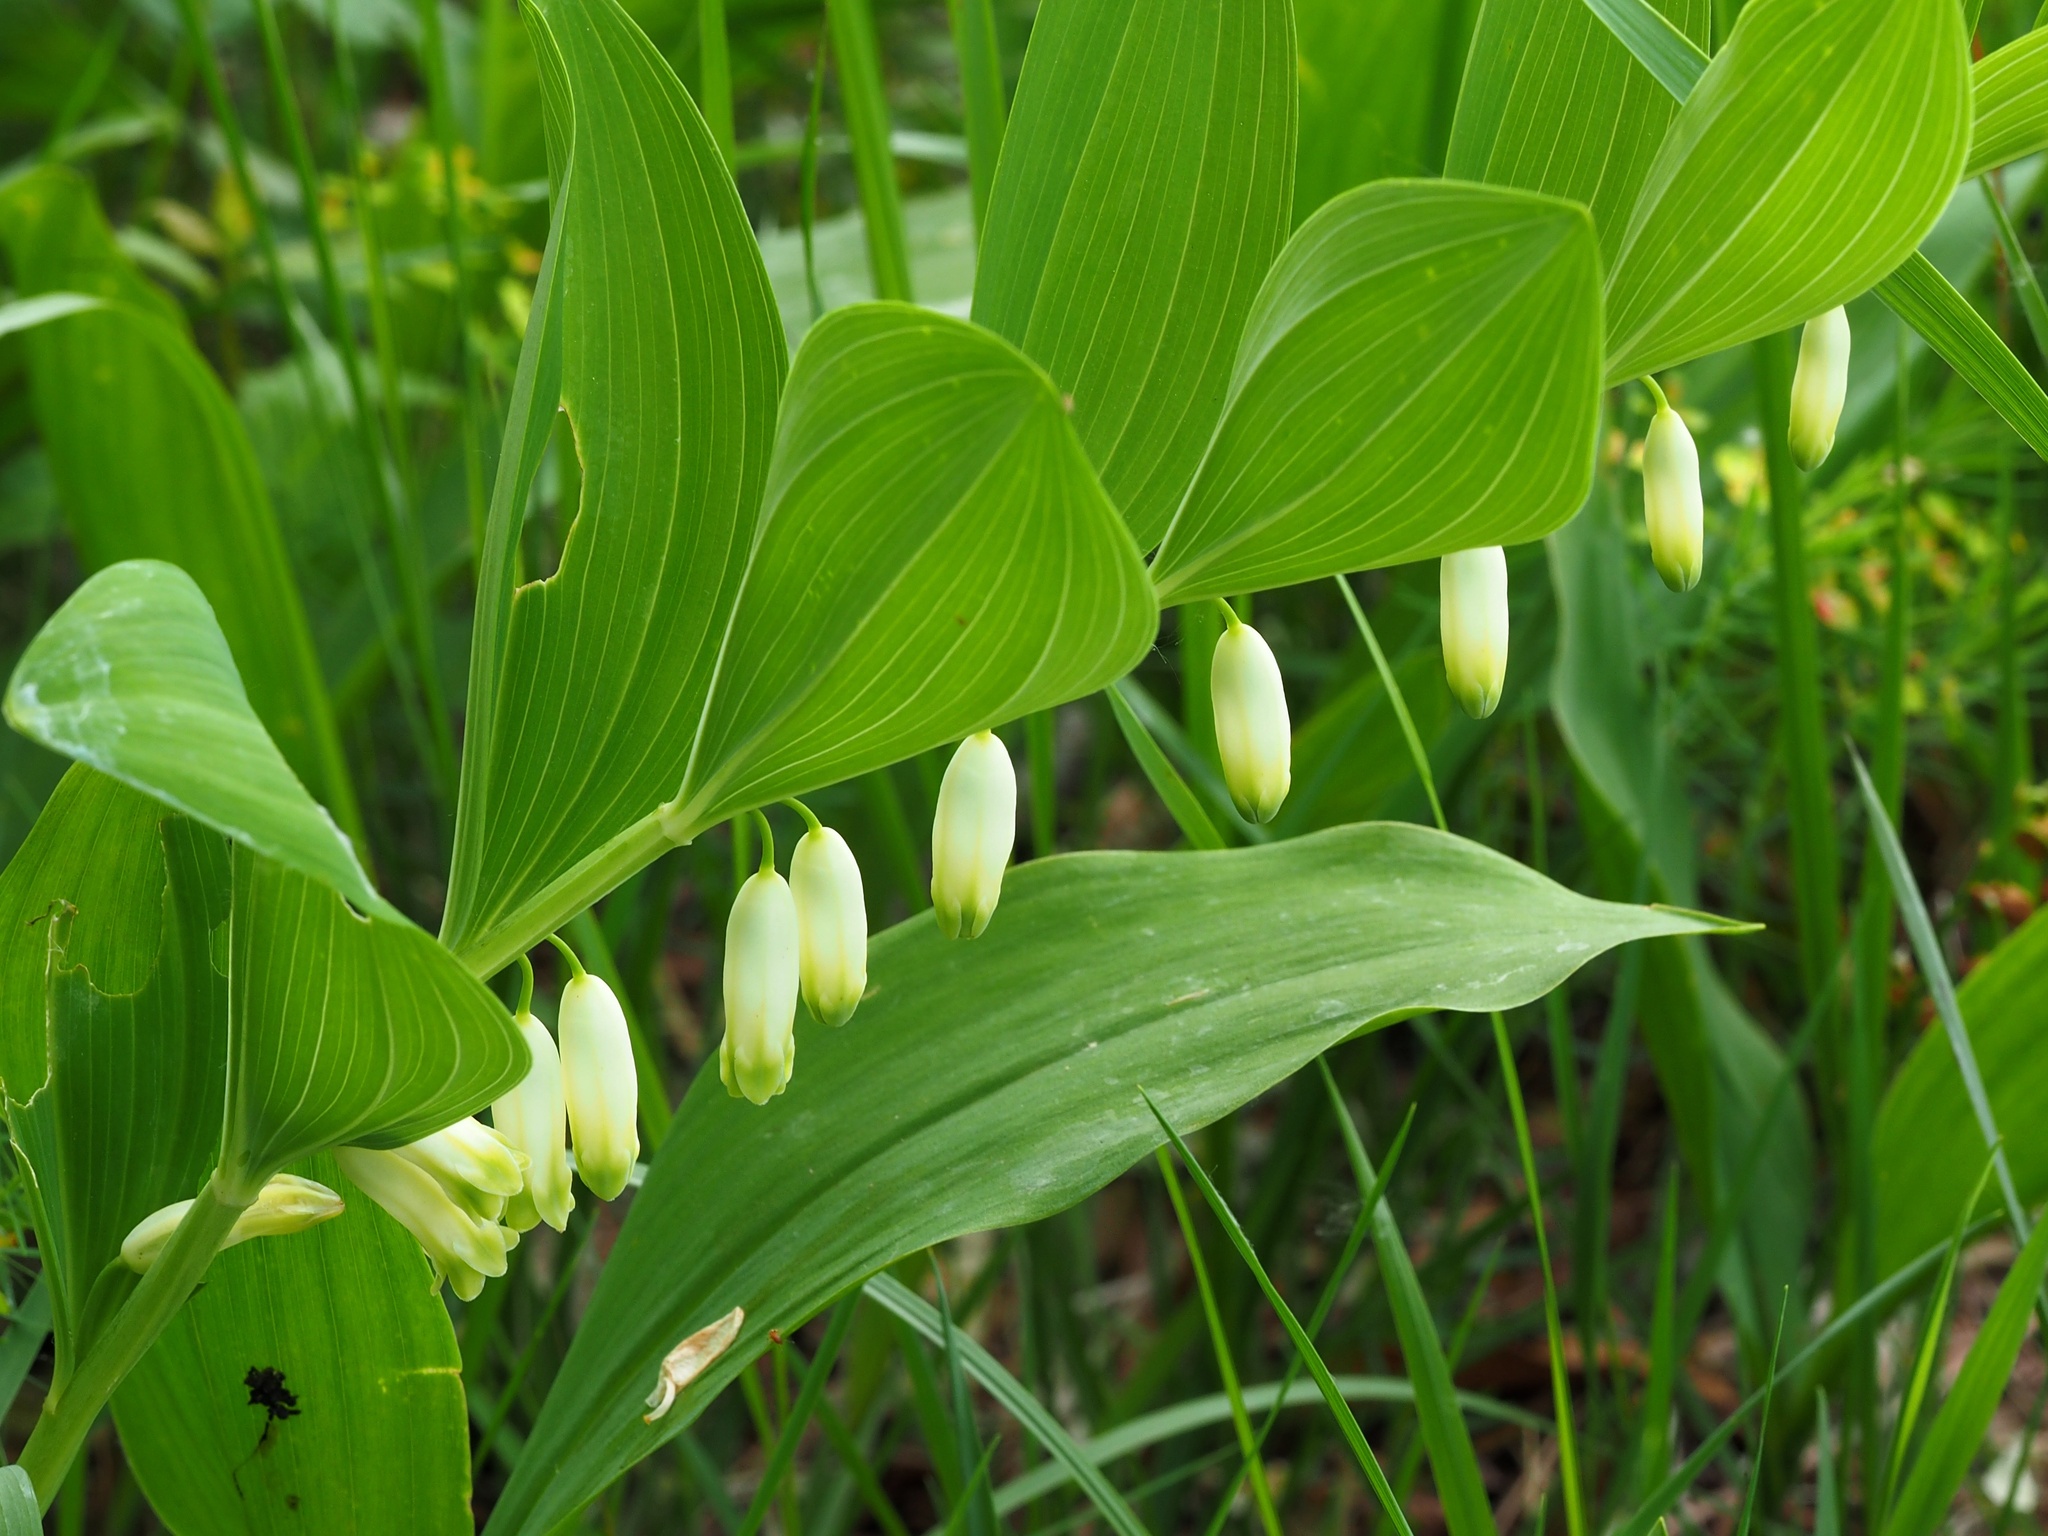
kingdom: Plantae
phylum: Tracheophyta
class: Liliopsida
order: Asparagales
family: Asparagaceae
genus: Polygonatum
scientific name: Polygonatum odoratum
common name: Angular solomon's-seal
